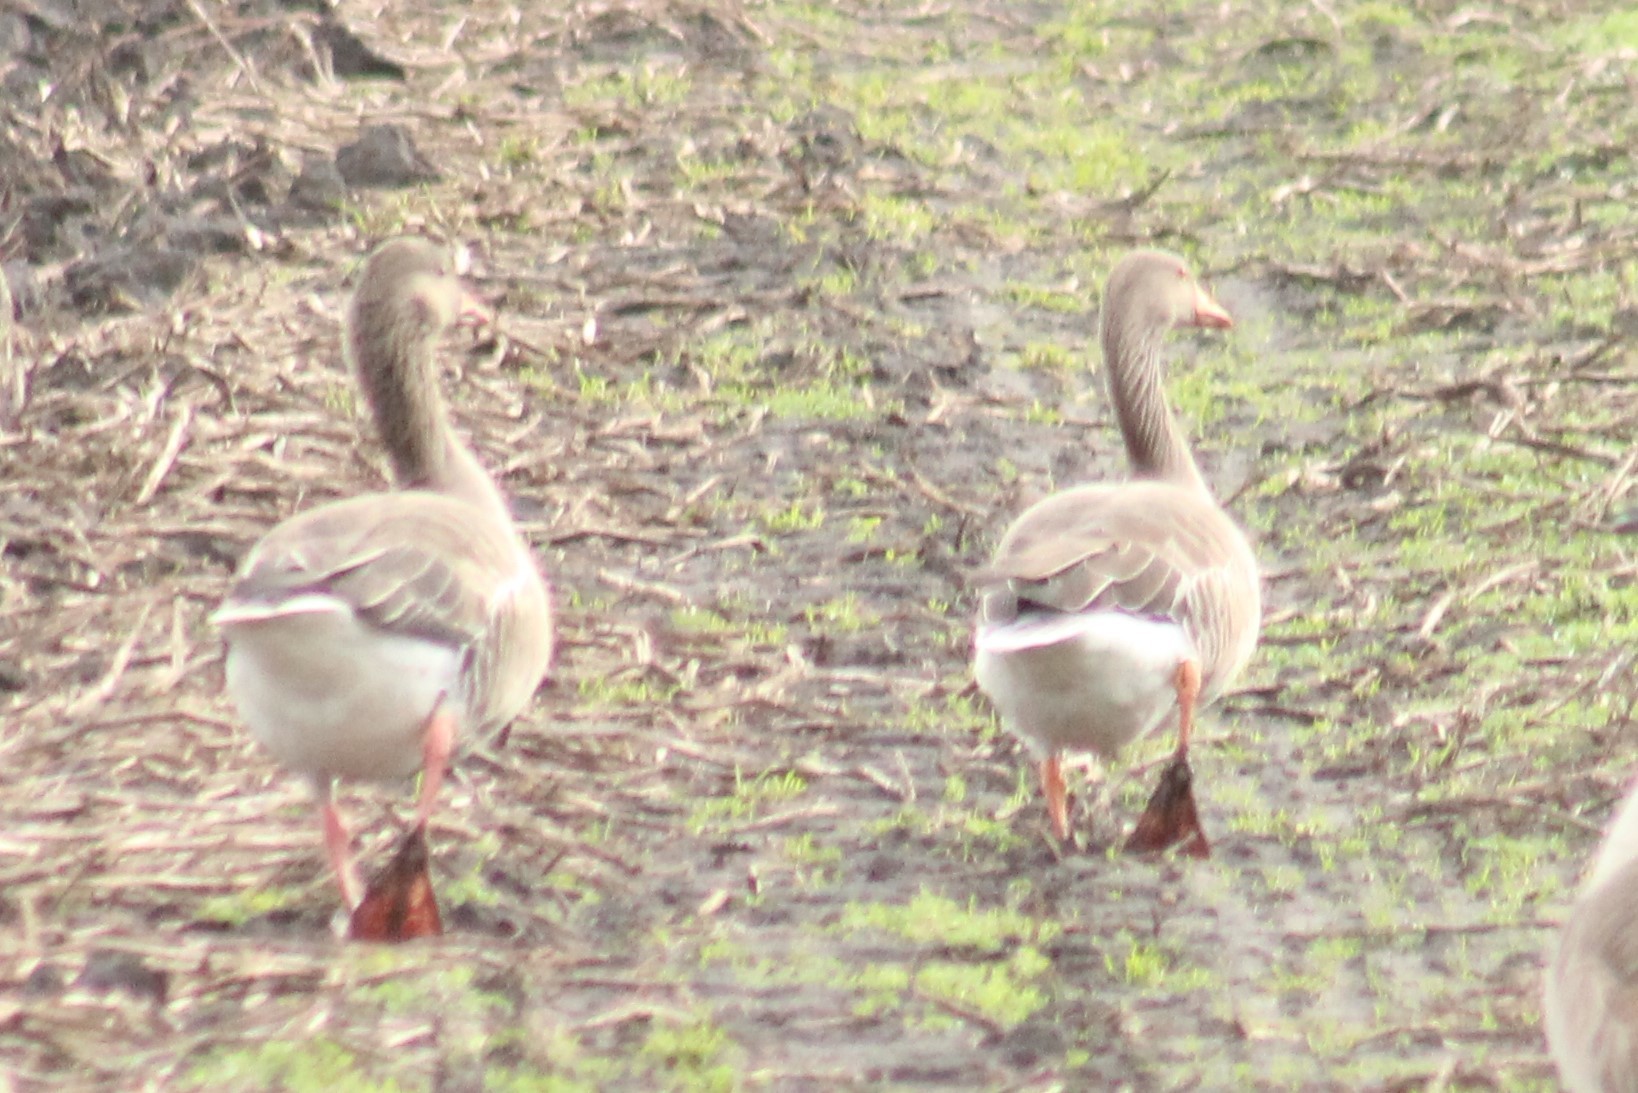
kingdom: Animalia
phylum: Chordata
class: Aves
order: Anseriformes
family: Anatidae
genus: Anser
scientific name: Anser anser
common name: Greylag goose
